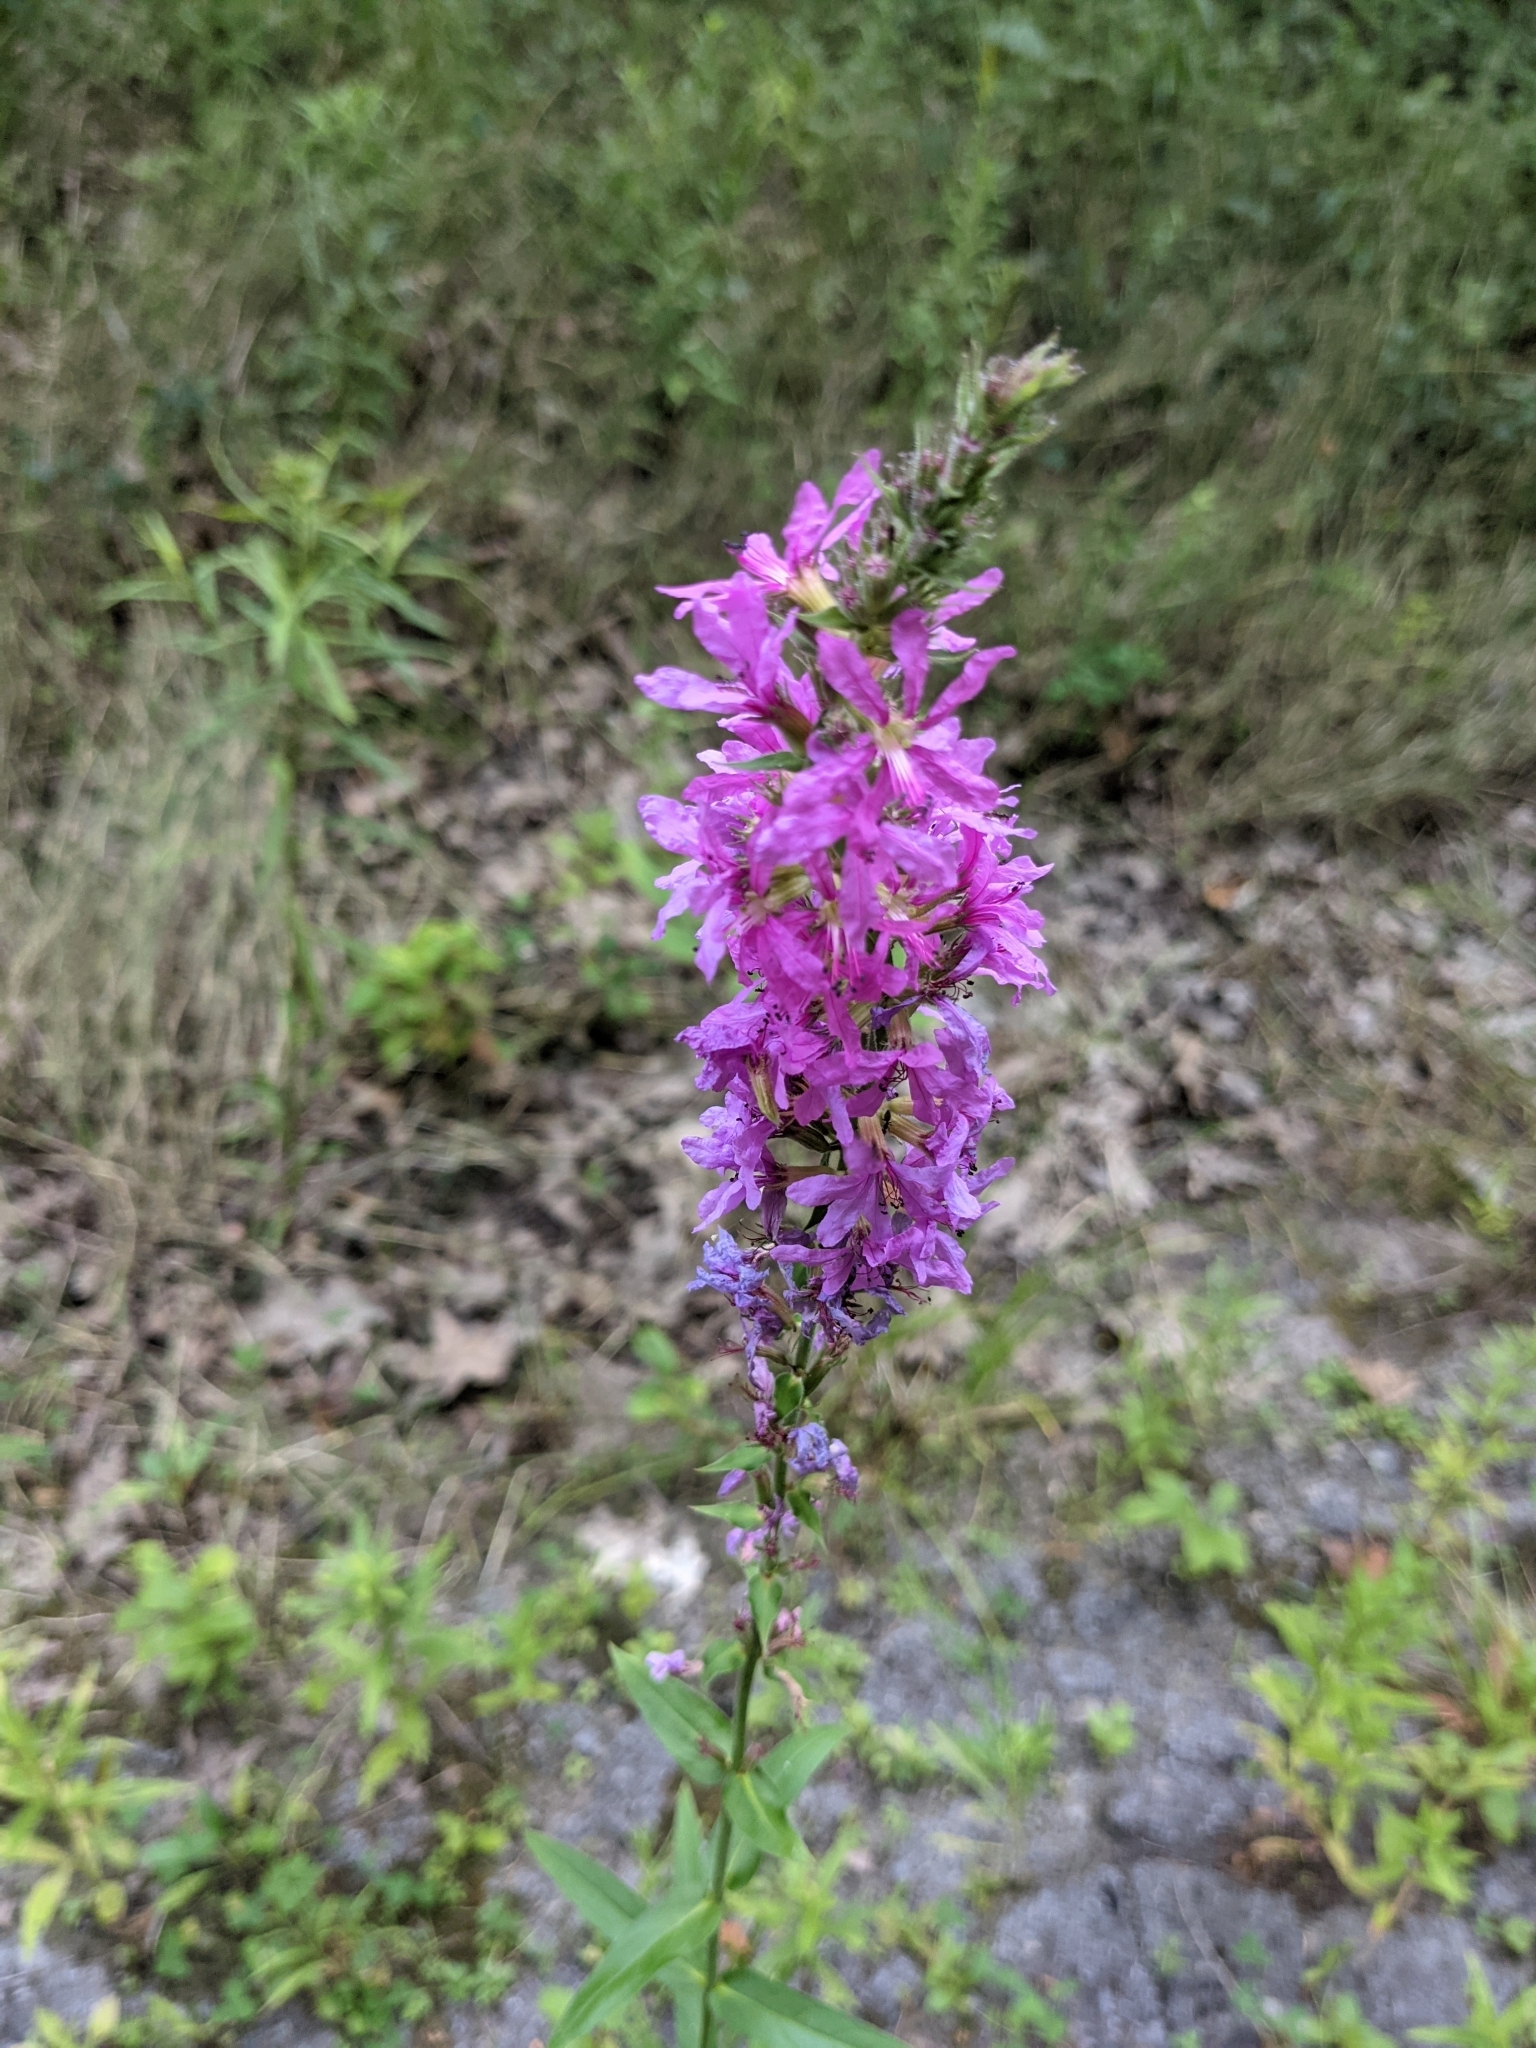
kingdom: Plantae
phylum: Tracheophyta
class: Magnoliopsida
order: Myrtales
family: Lythraceae
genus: Lythrum
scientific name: Lythrum salicaria
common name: Purple loosestrife
